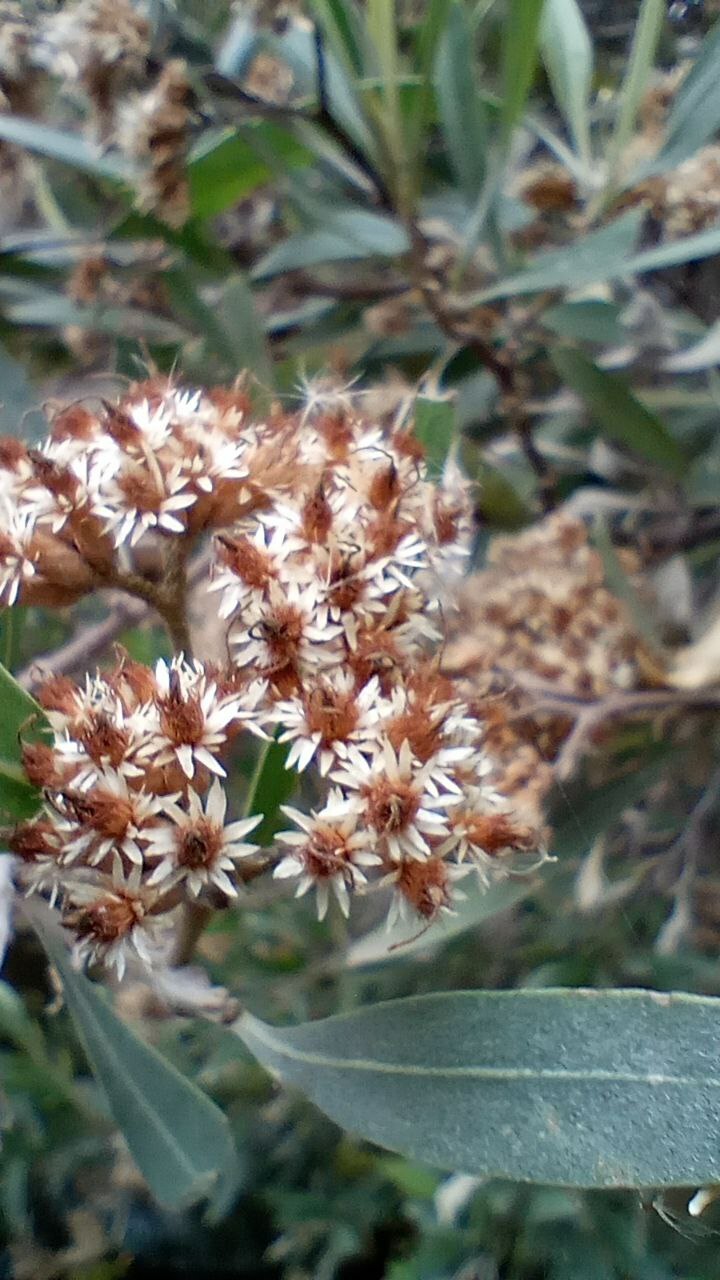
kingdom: Plantae
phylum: Tracheophyta
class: Magnoliopsida
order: Asterales
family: Asteraceae
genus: Tessaria
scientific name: Tessaria integrifolia
